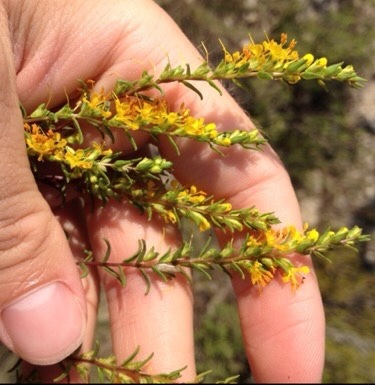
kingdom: Plantae
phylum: Tracheophyta
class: Magnoliopsida
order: Lamiales
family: Orobanchaceae
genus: Odontites
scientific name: Odontites luteus
